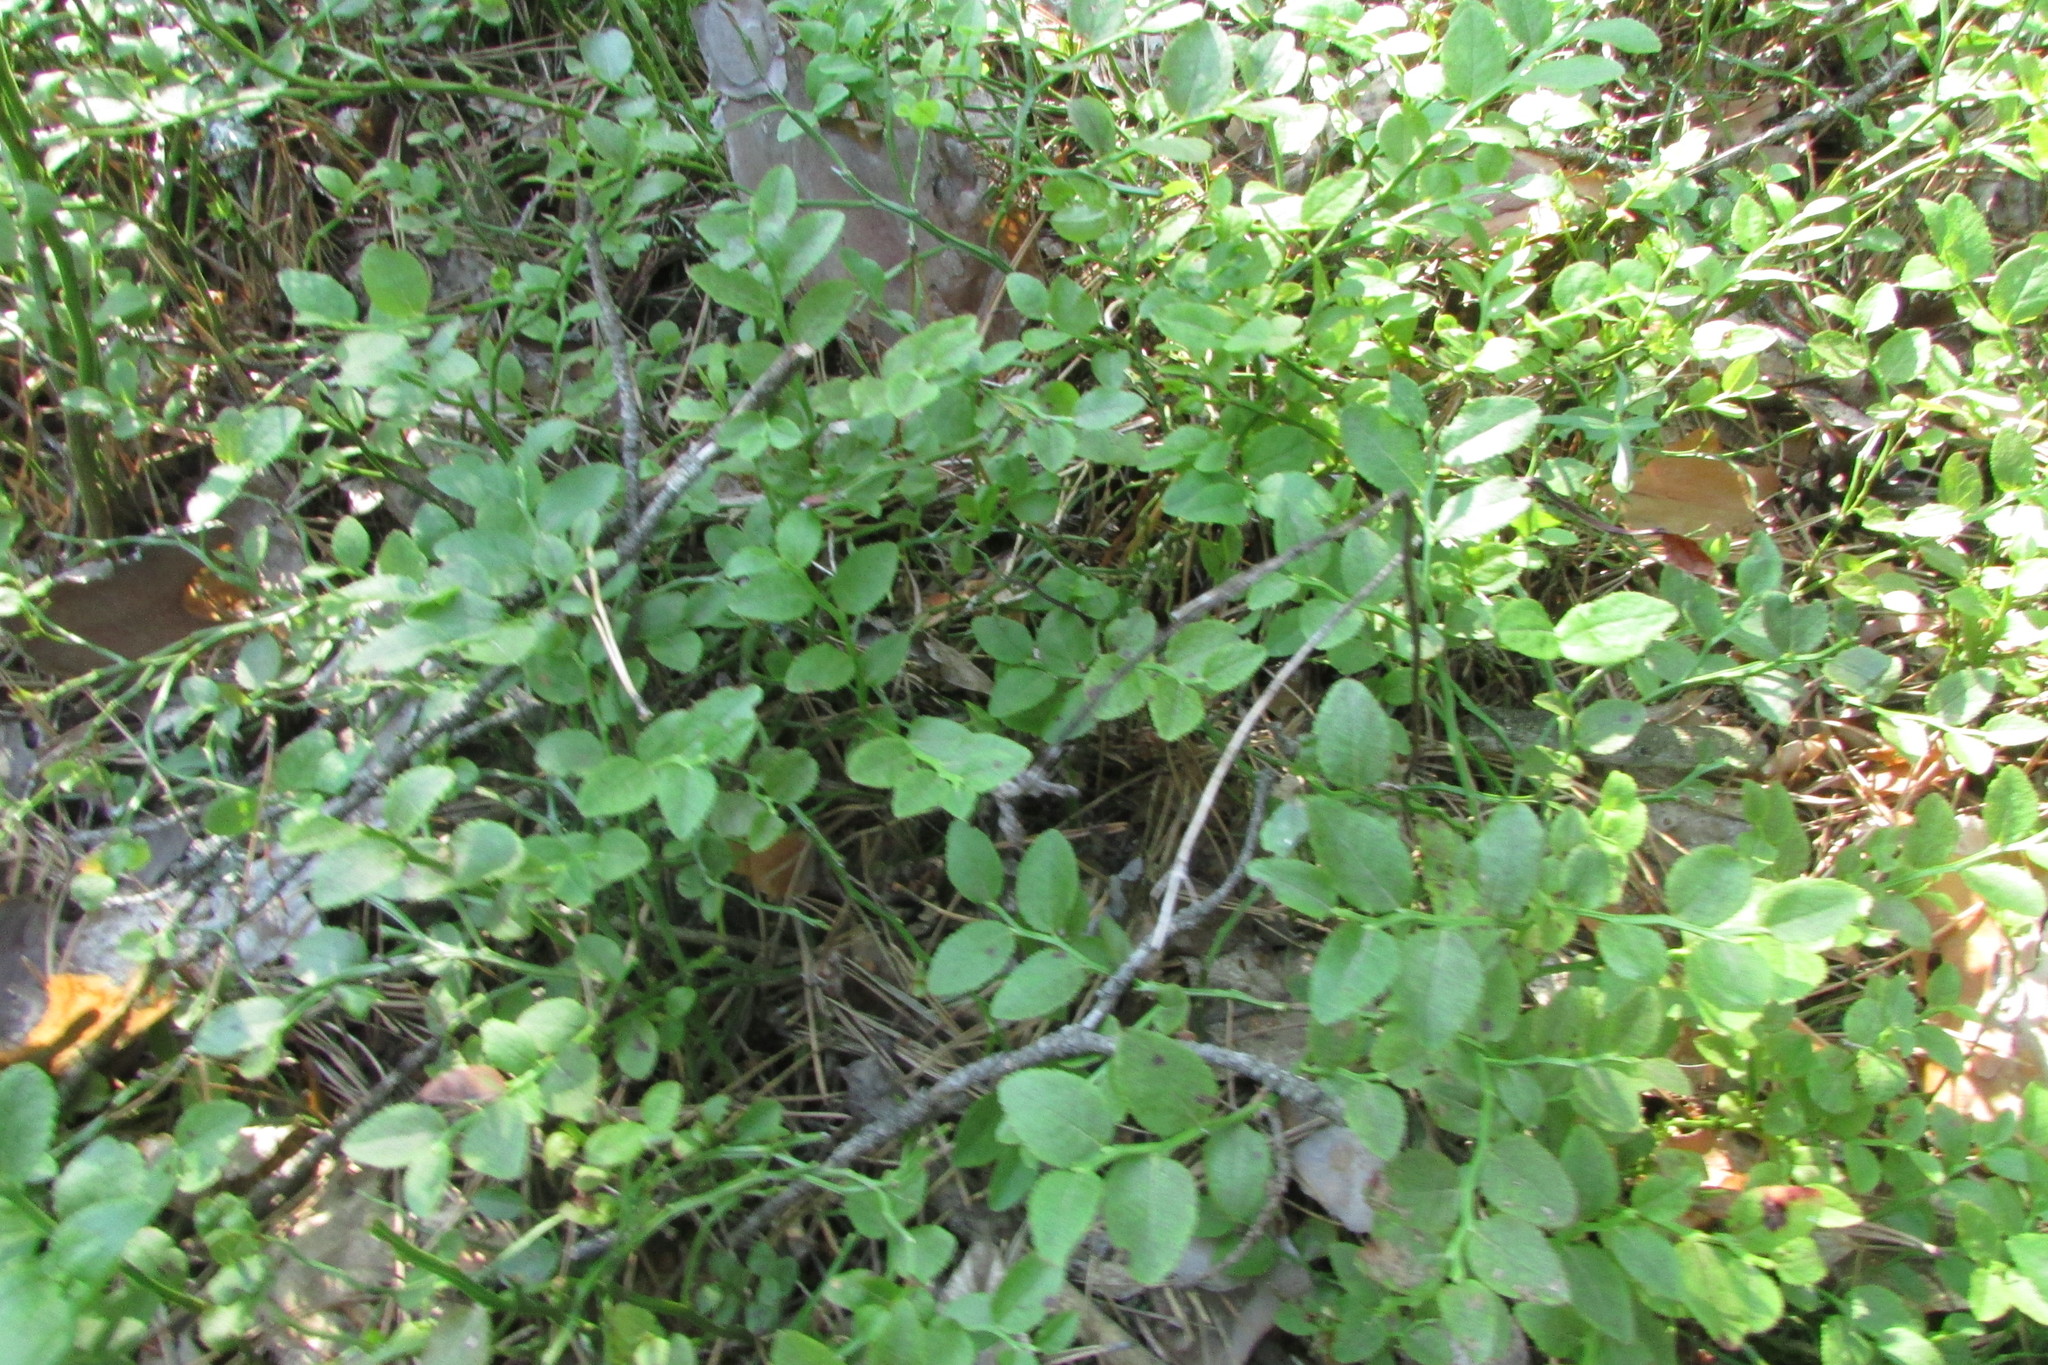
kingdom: Plantae
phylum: Tracheophyta
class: Magnoliopsida
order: Ericales
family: Ericaceae
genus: Vaccinium
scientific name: Vaccinium myrtillus
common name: Bilberry
